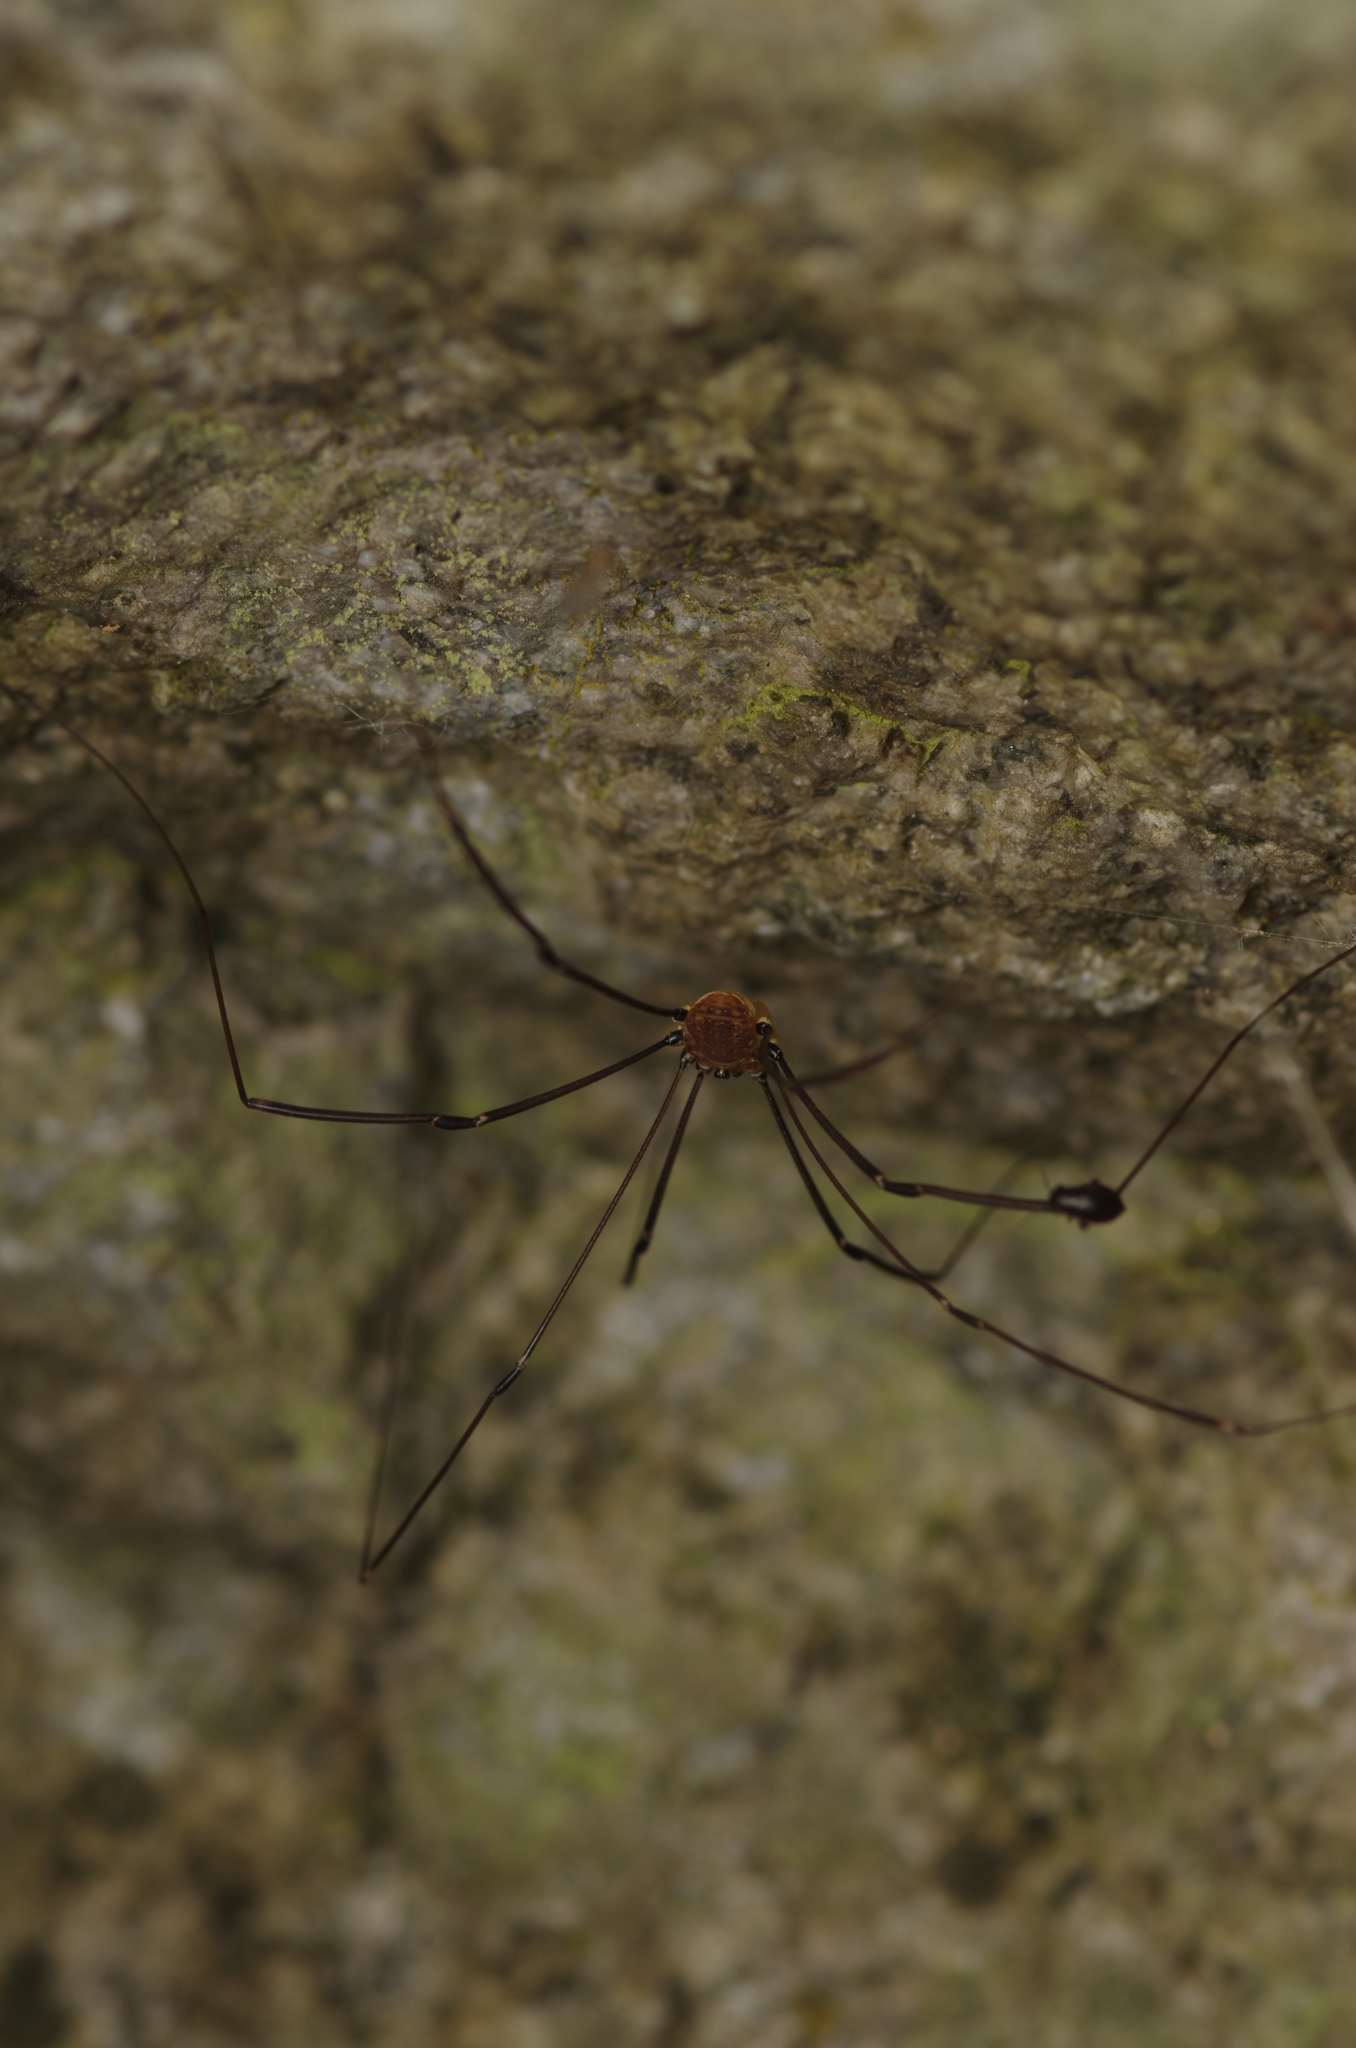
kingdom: Animalia
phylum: Arthropoda
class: Arachnida
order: Opiliones
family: Sclerosomatidae
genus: Leiobunum
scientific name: Leiobunum rotundum
